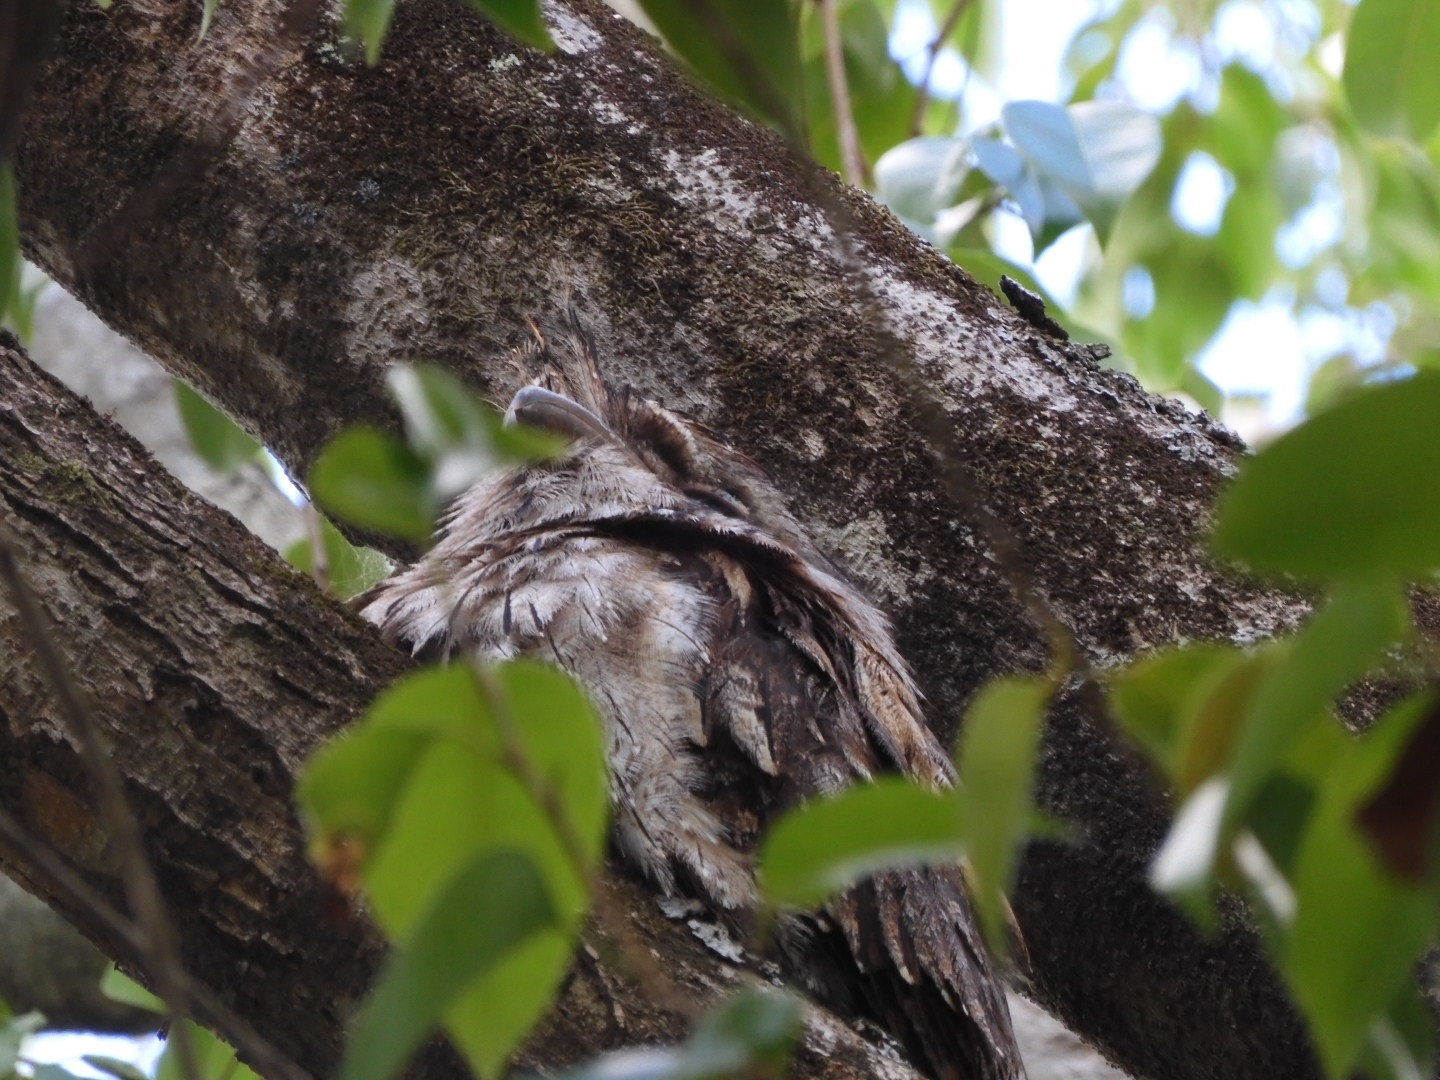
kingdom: Animalia
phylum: Chordata
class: Aves
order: Caprimulgiformes
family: Podargidae
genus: Podargus
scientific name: Podargus strigoides
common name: Tawny frogmouth
